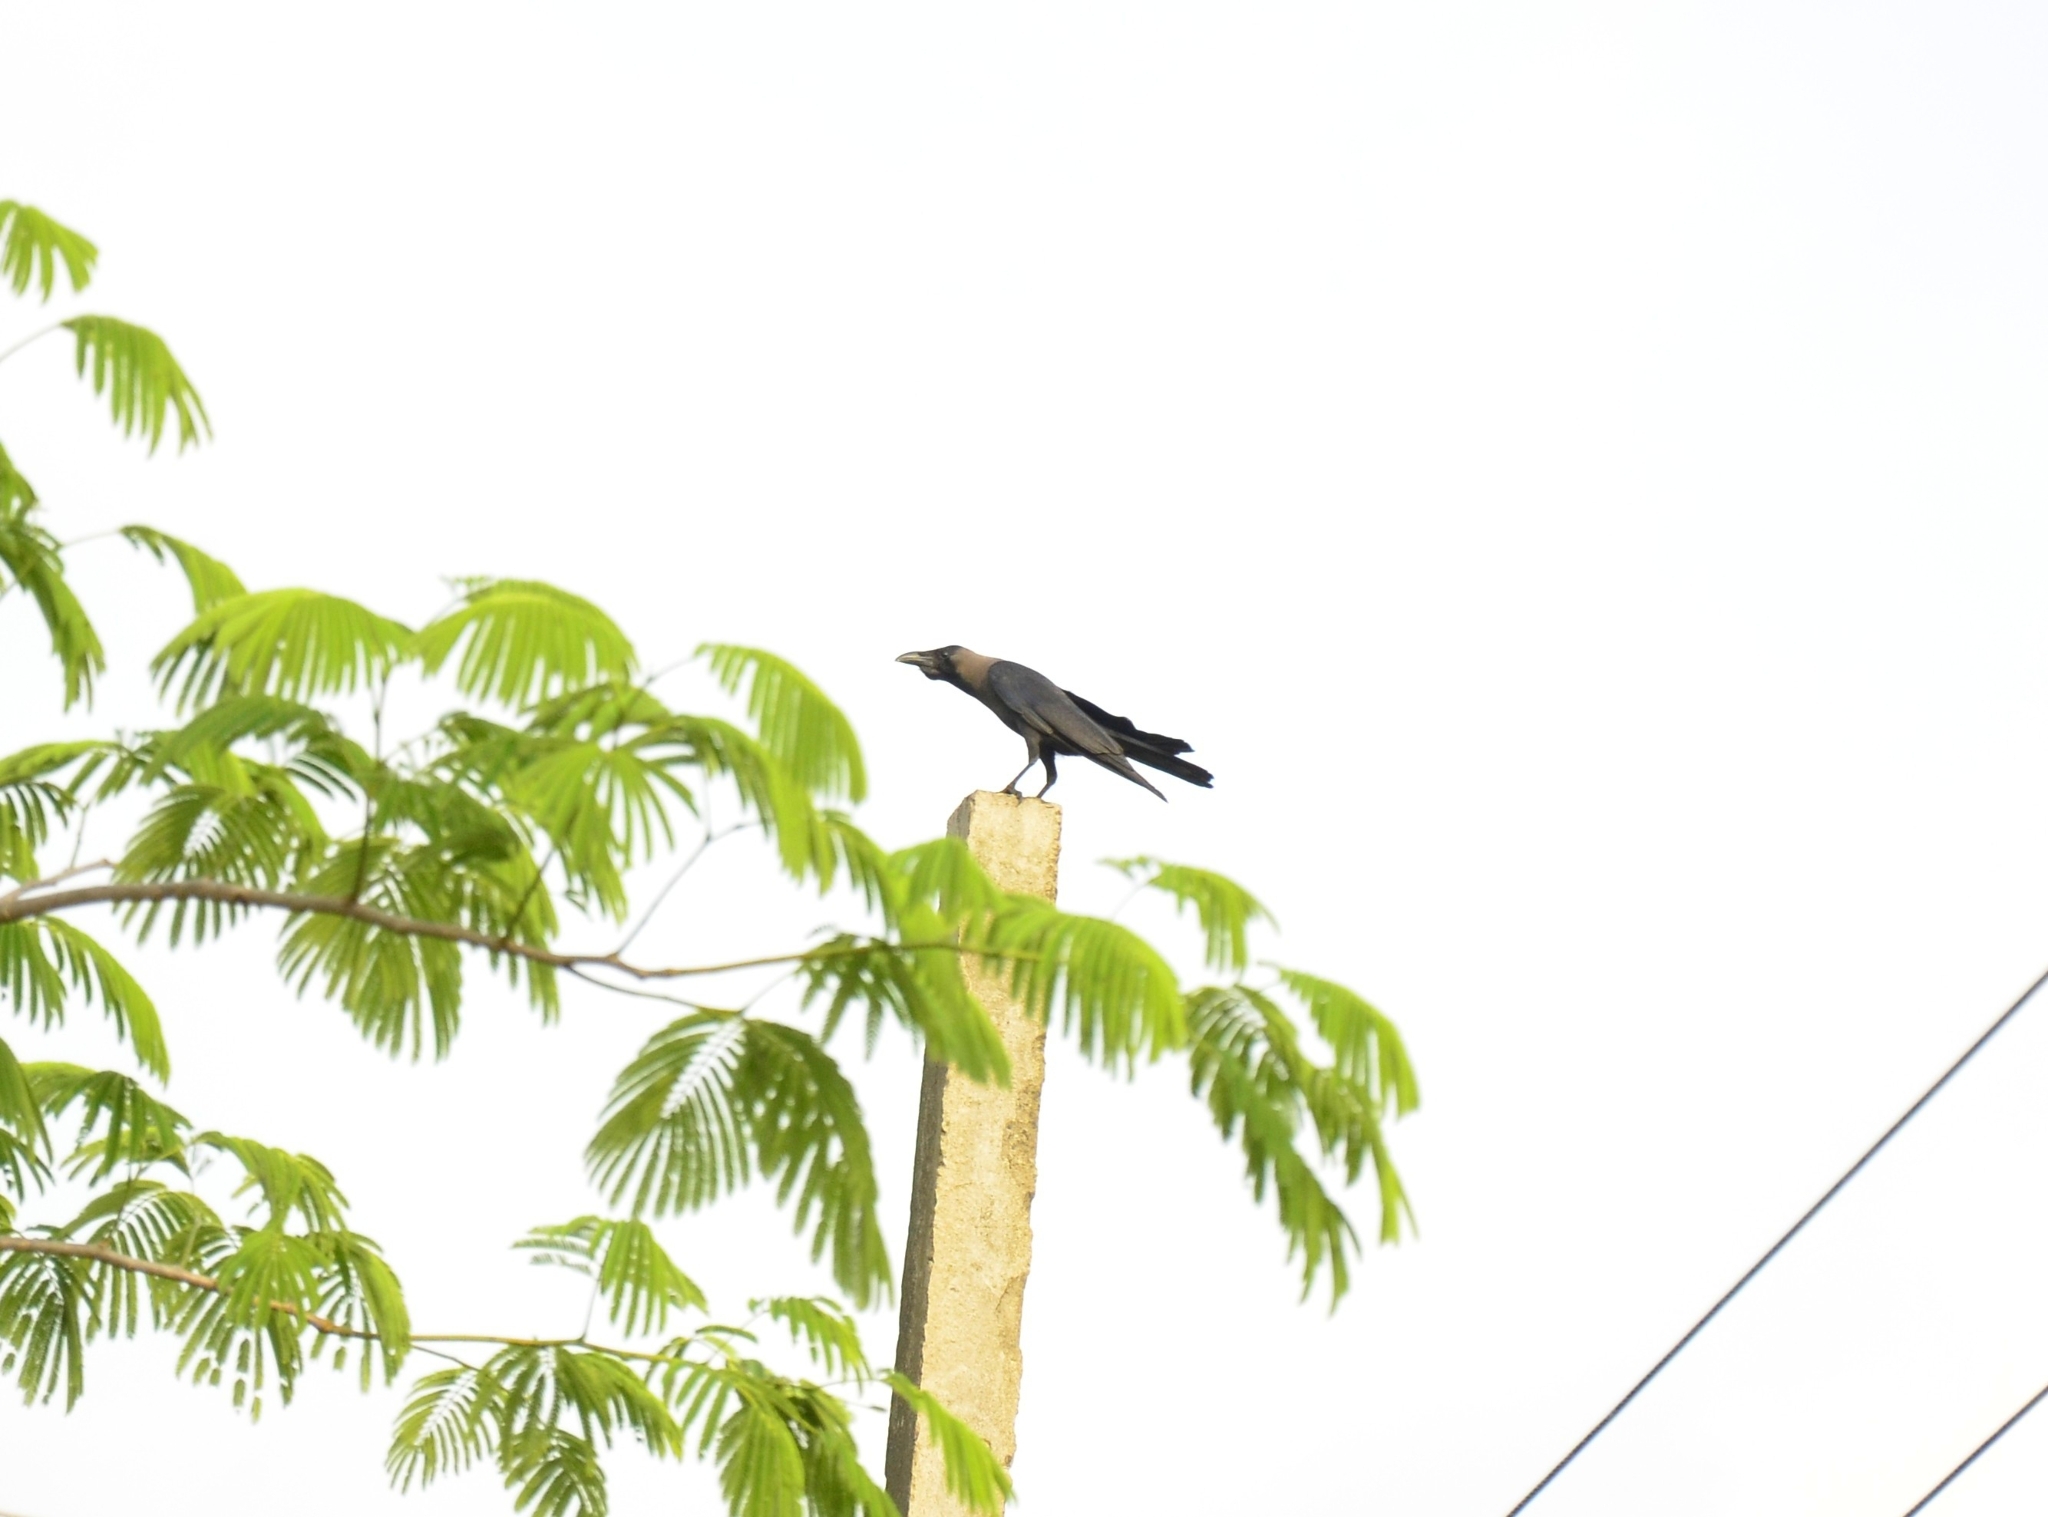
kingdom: Animalia
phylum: Chordata
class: Aves
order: Passeriformes
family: Corvidae
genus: Corvus
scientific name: Corvus splendens
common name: House crow
